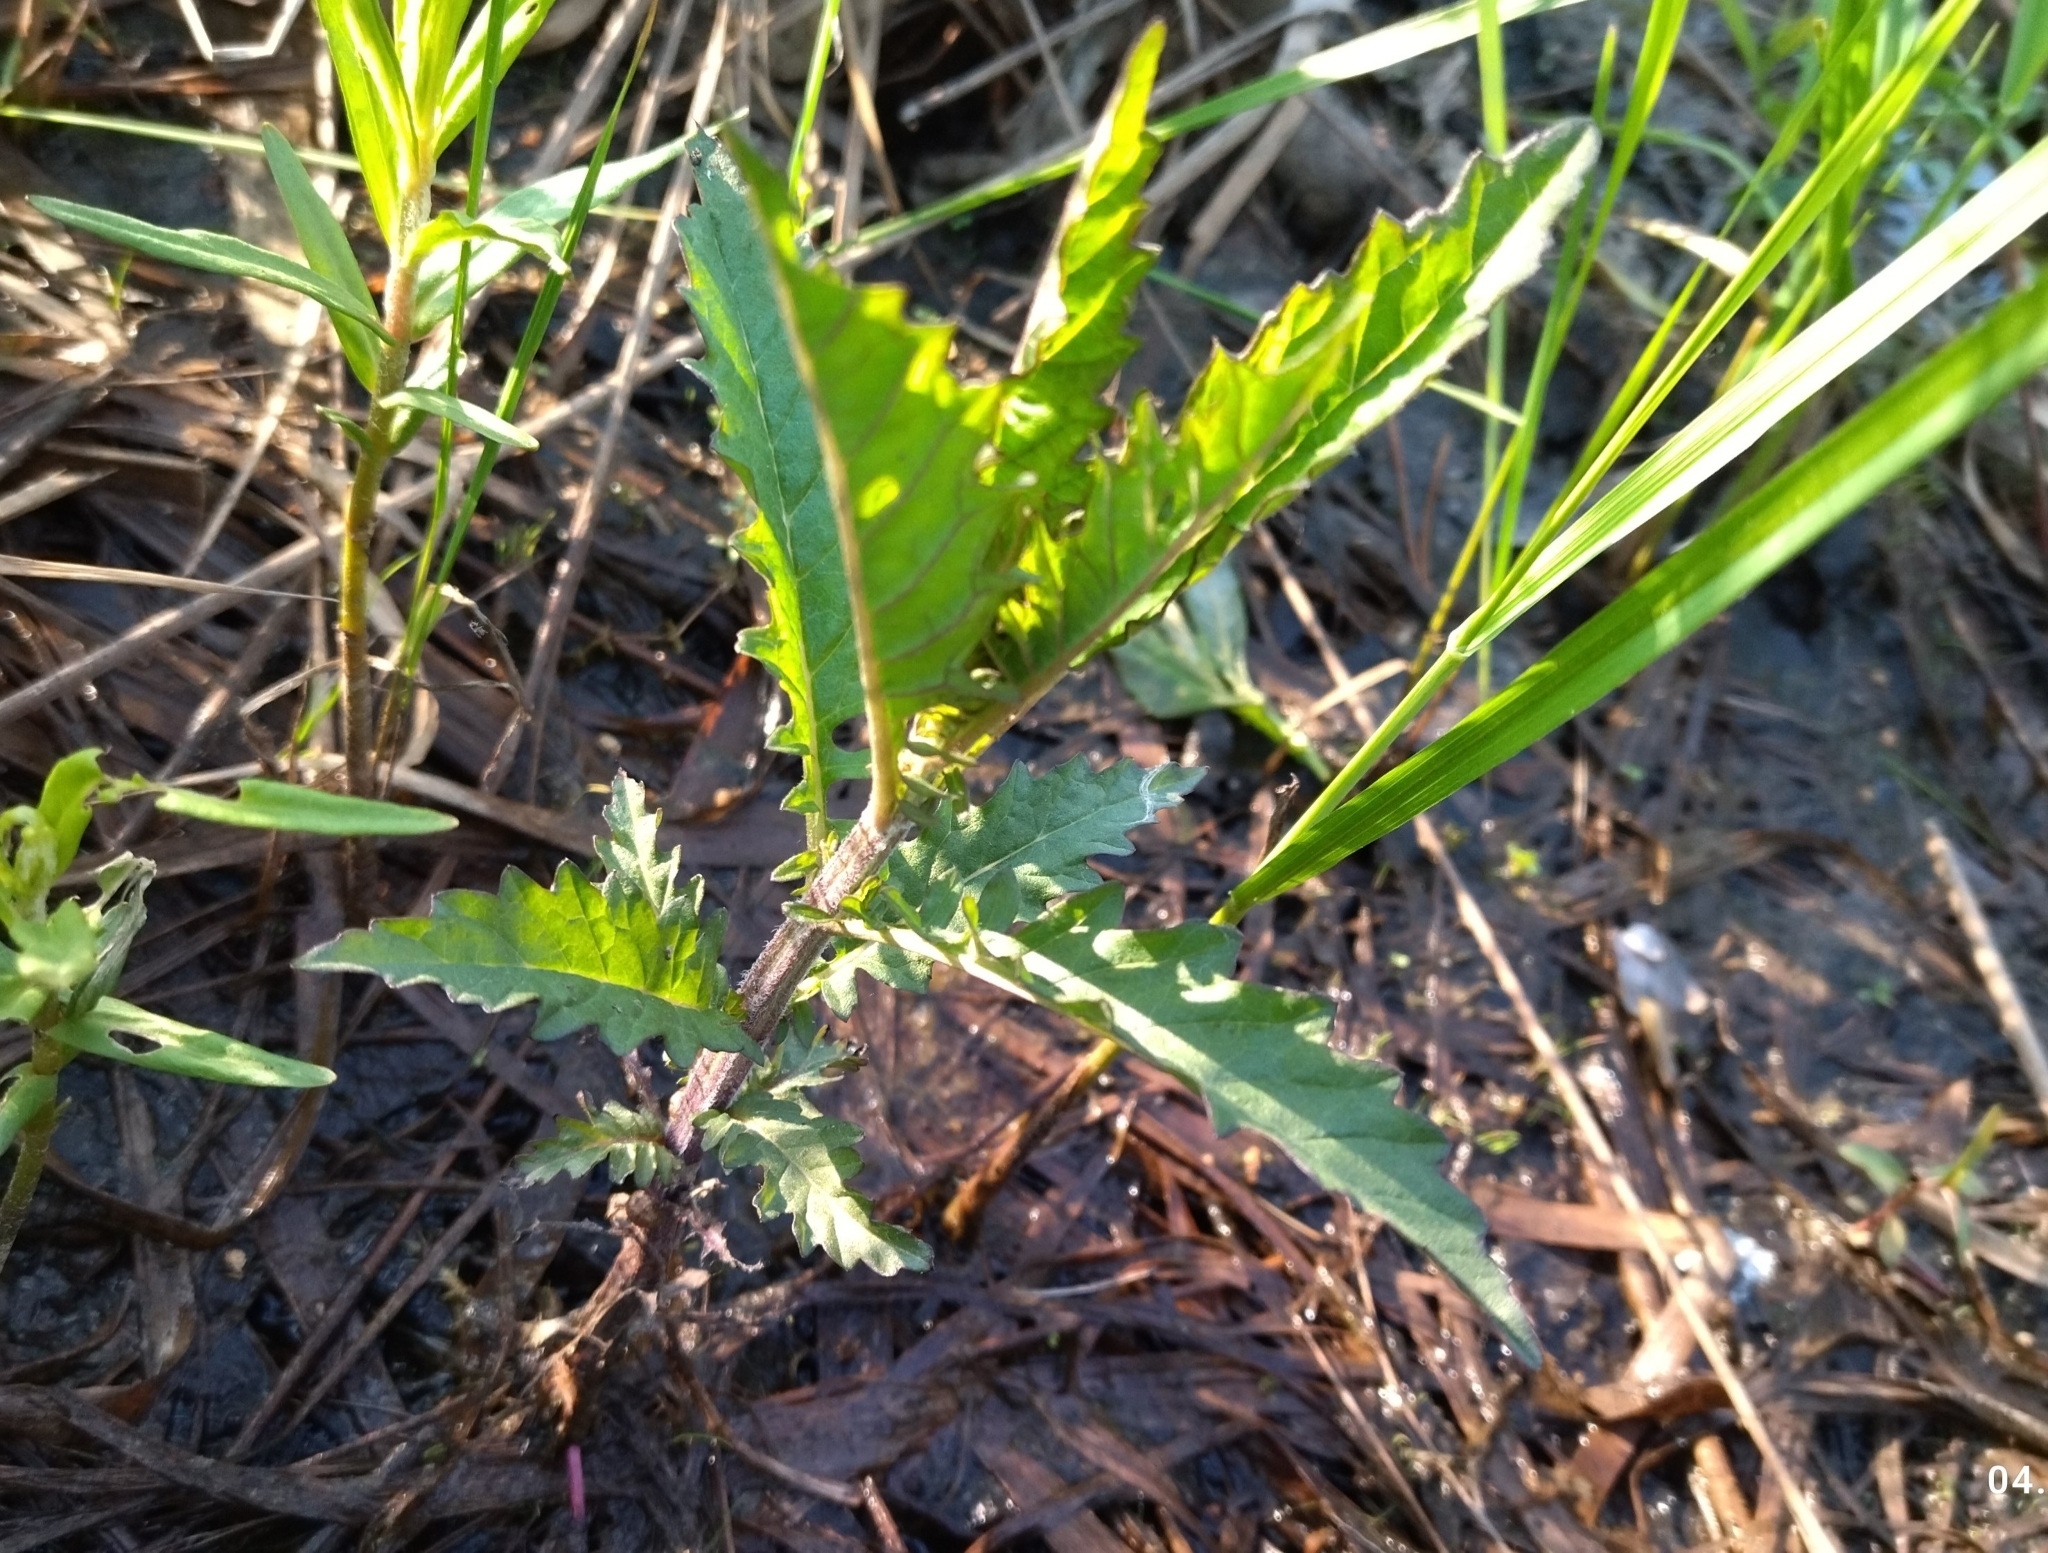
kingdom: Plantae
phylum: Tracheophyta
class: Magnoliopsida
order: Lamiales
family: Lamiaceae
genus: Lycopus
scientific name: Lycopus europaeus
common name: European bugleweed
